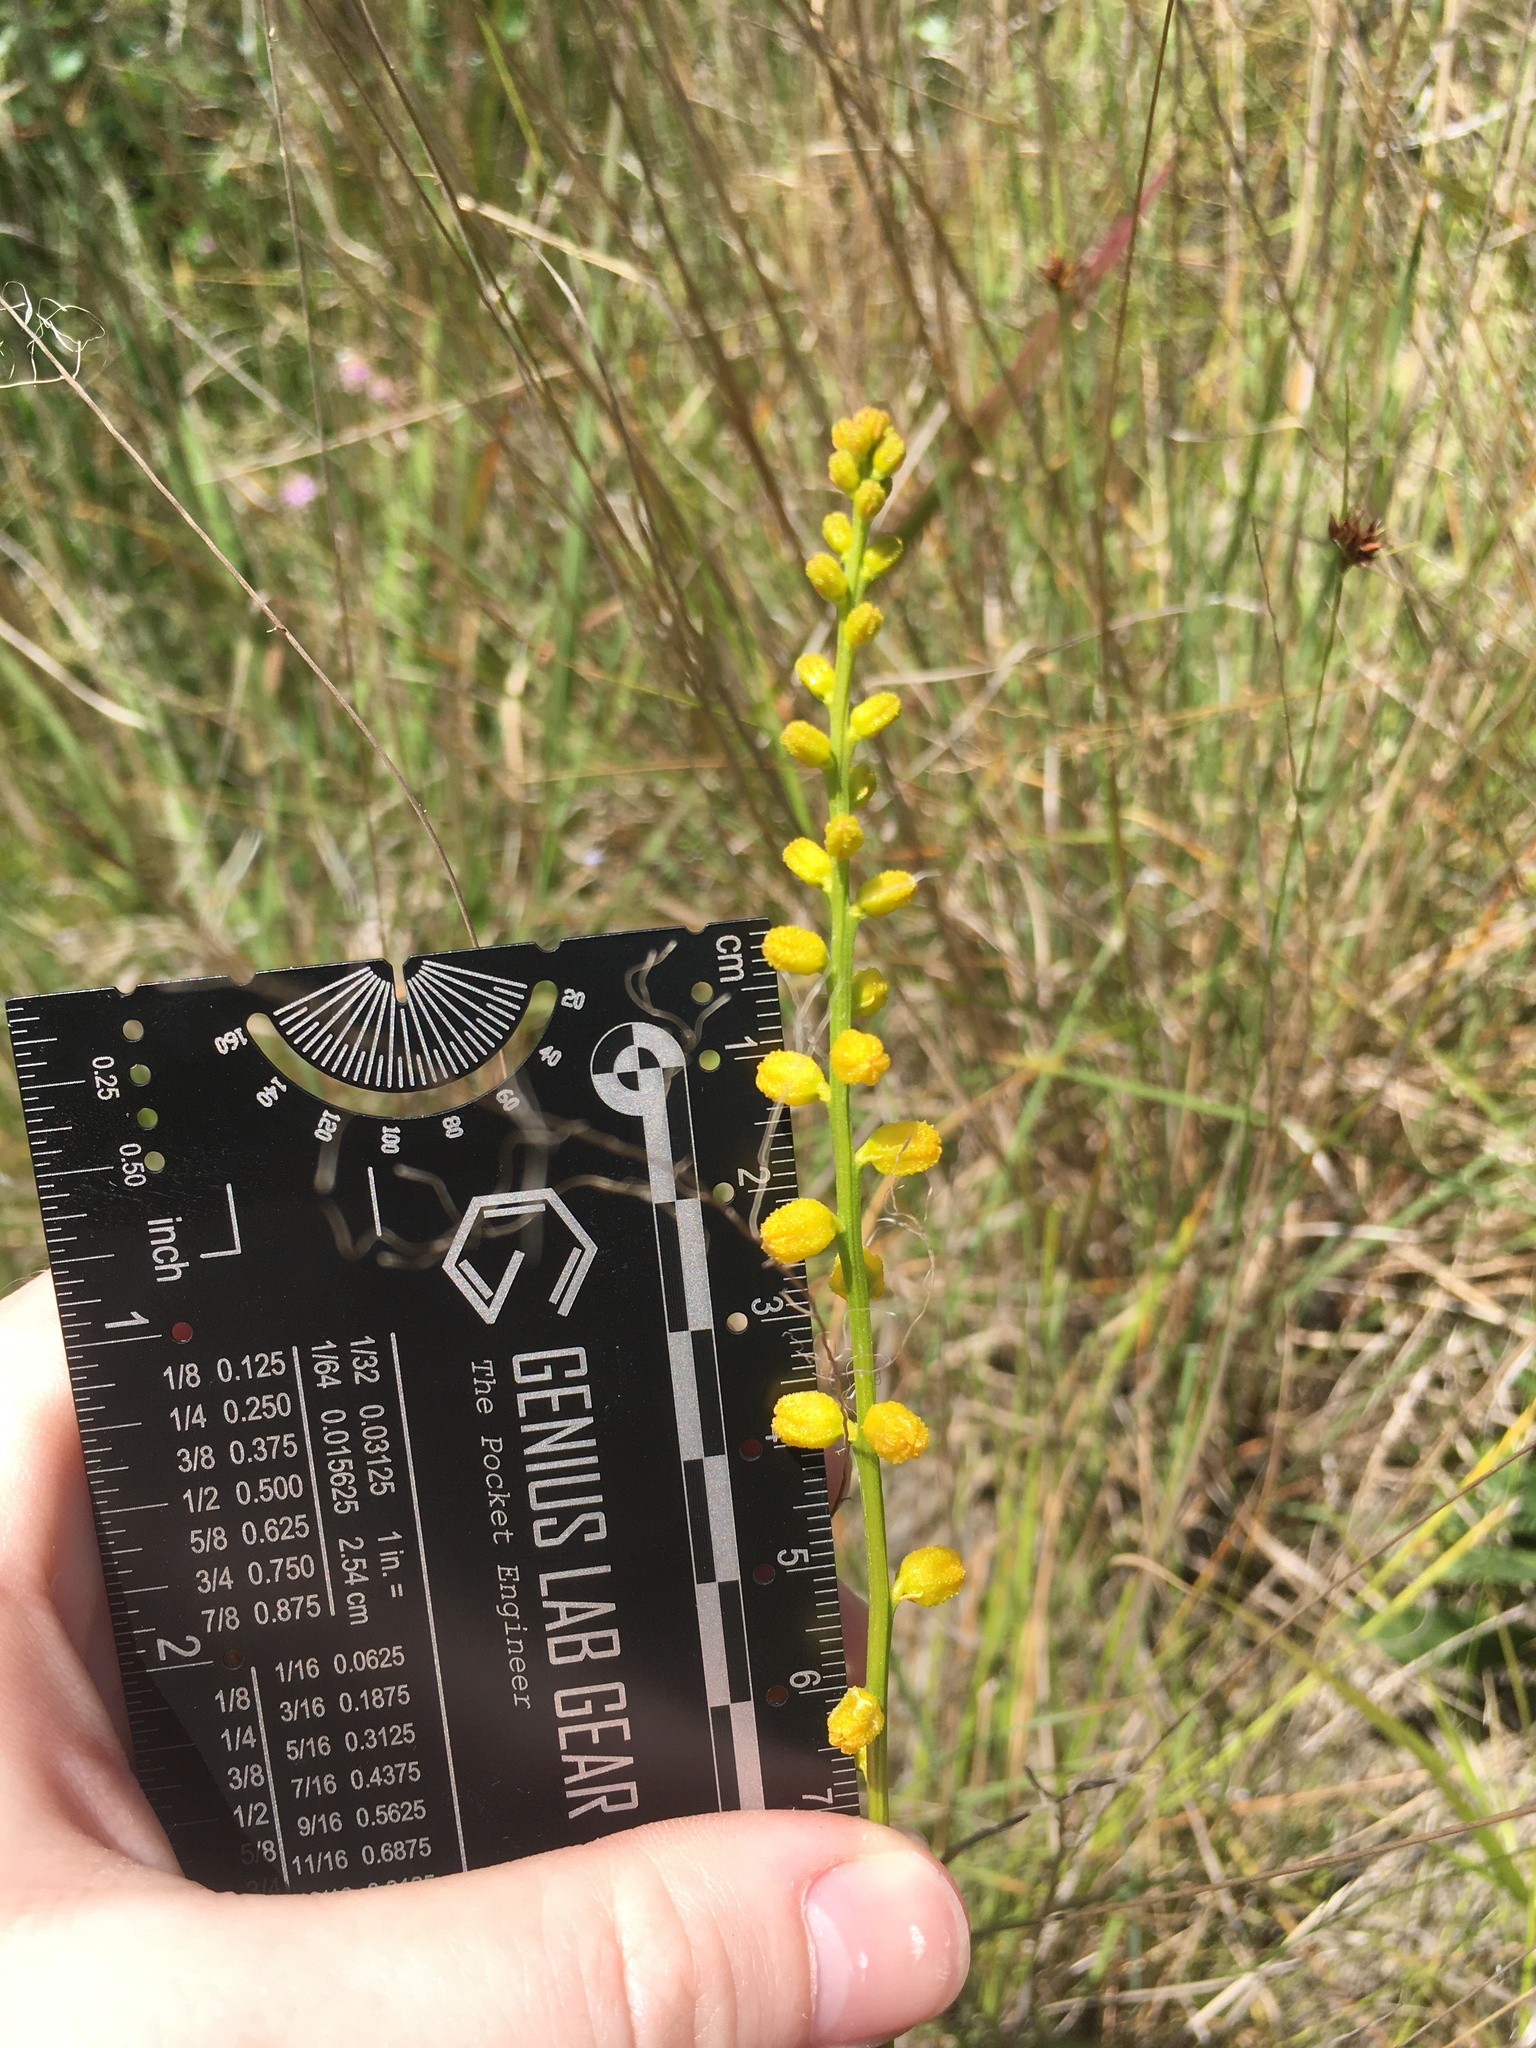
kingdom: Plantae
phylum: Tracheophyta
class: Liliopsida
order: Dioscoreales
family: Nartheciaceae
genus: Aletris
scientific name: Aletris aurea
